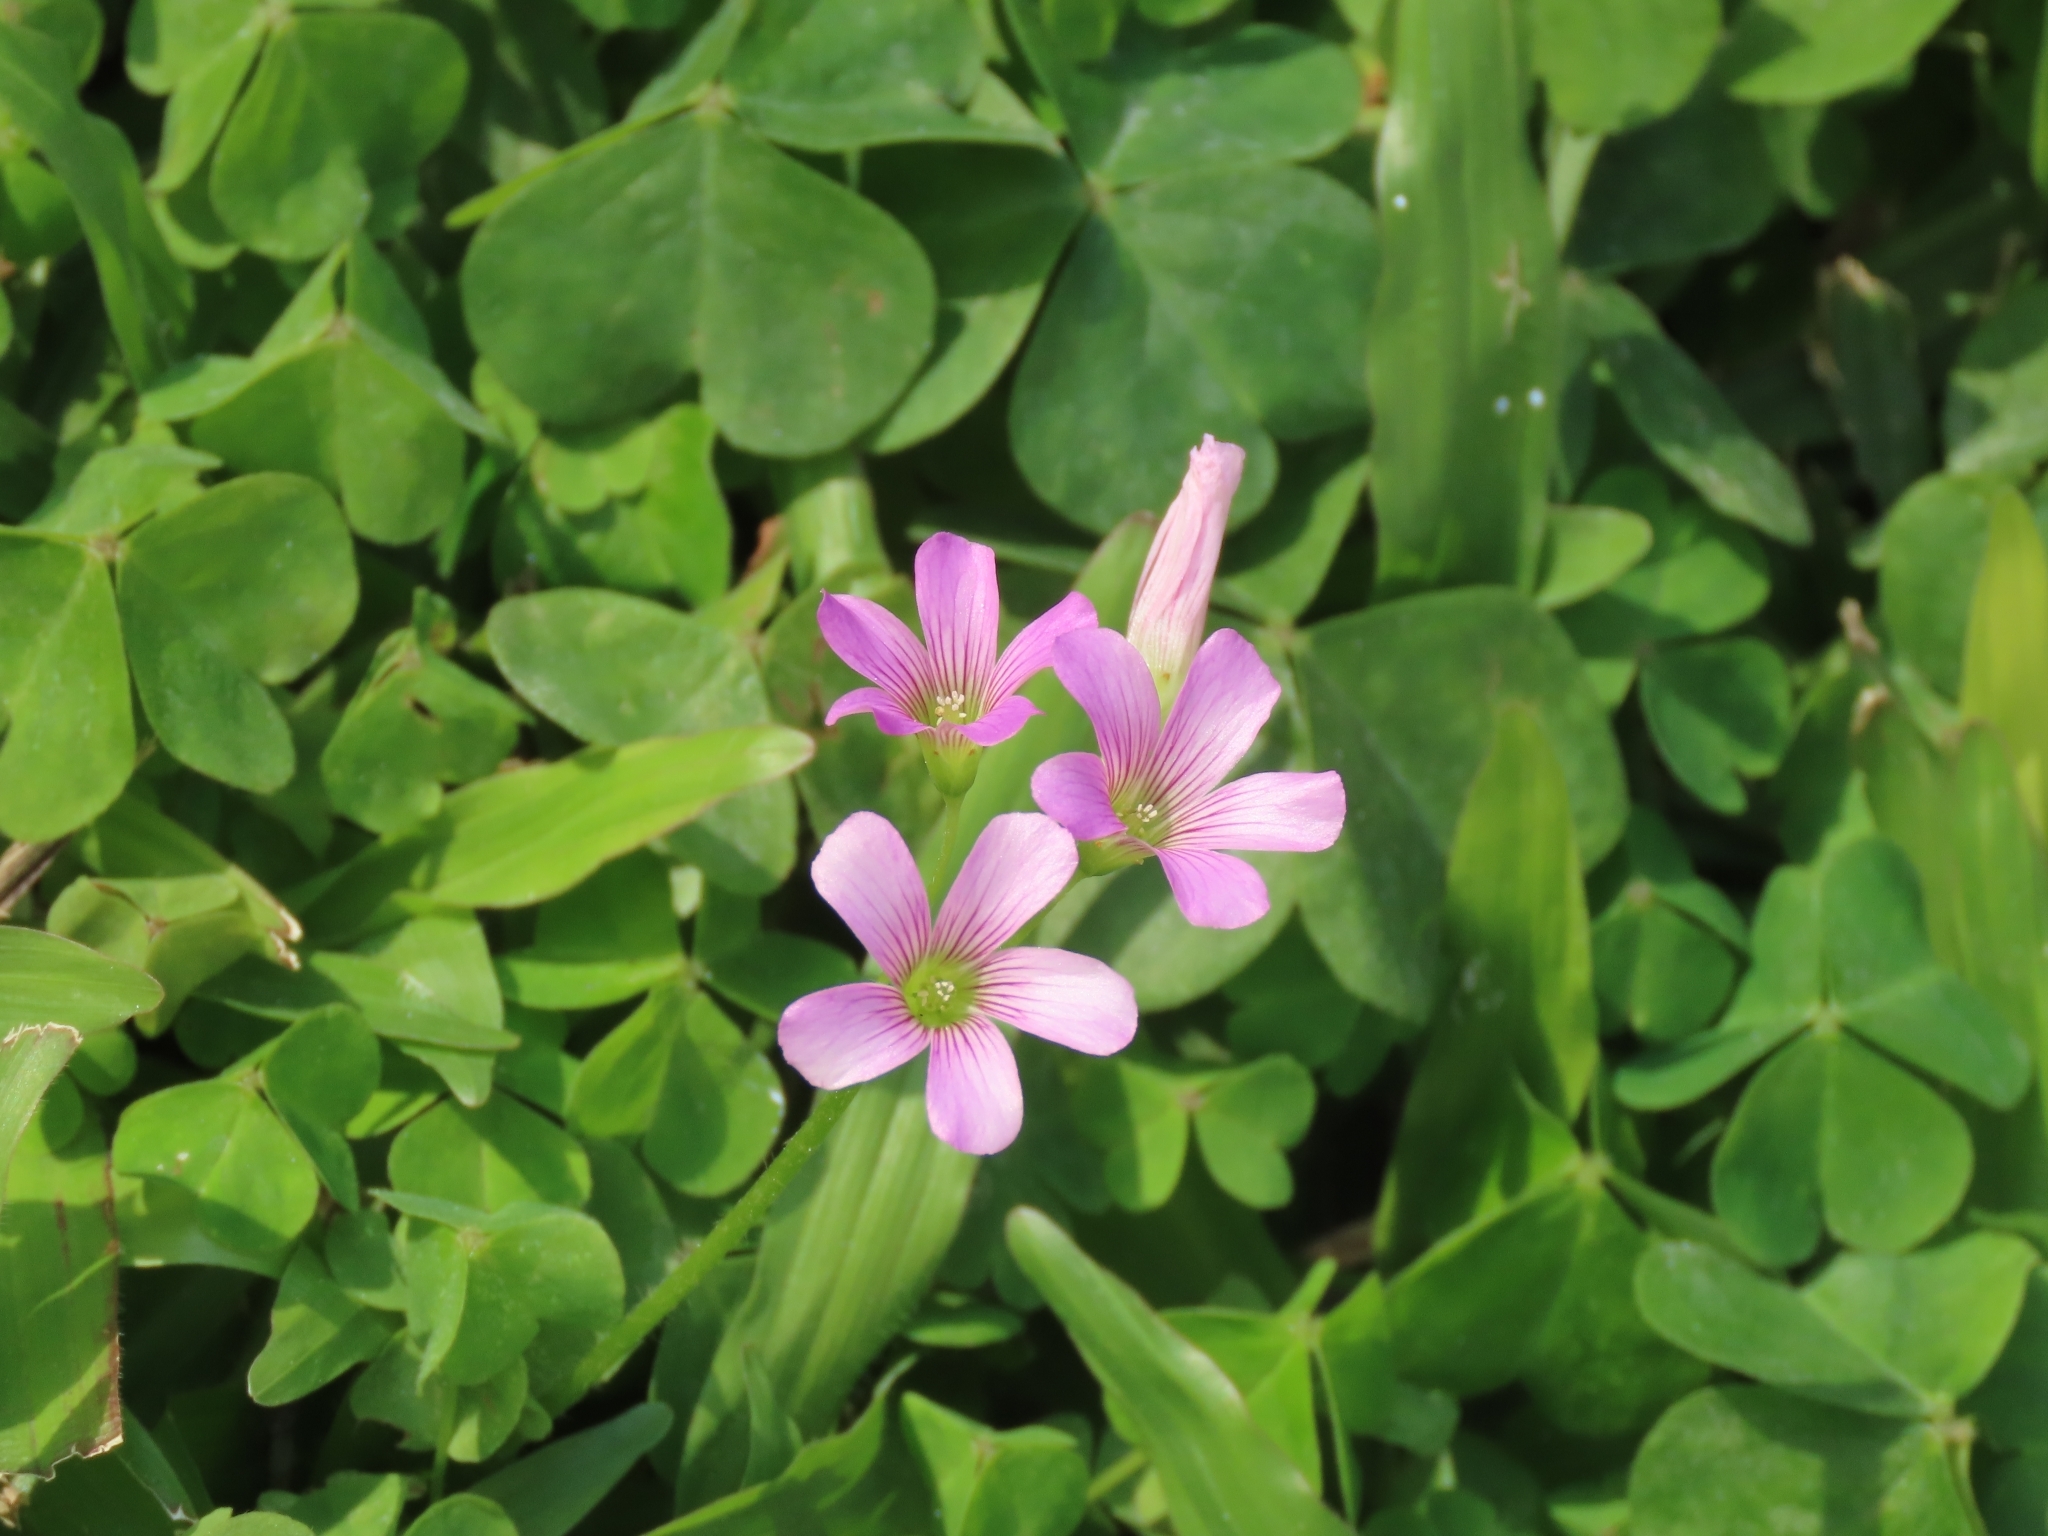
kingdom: Plantae
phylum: Tracheophyta
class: Magnoliopsida
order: Oxalidales
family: Oxalidaceae
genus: Oxalis
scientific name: Oxalis debilis
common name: Large-flowered pink-sorrel
